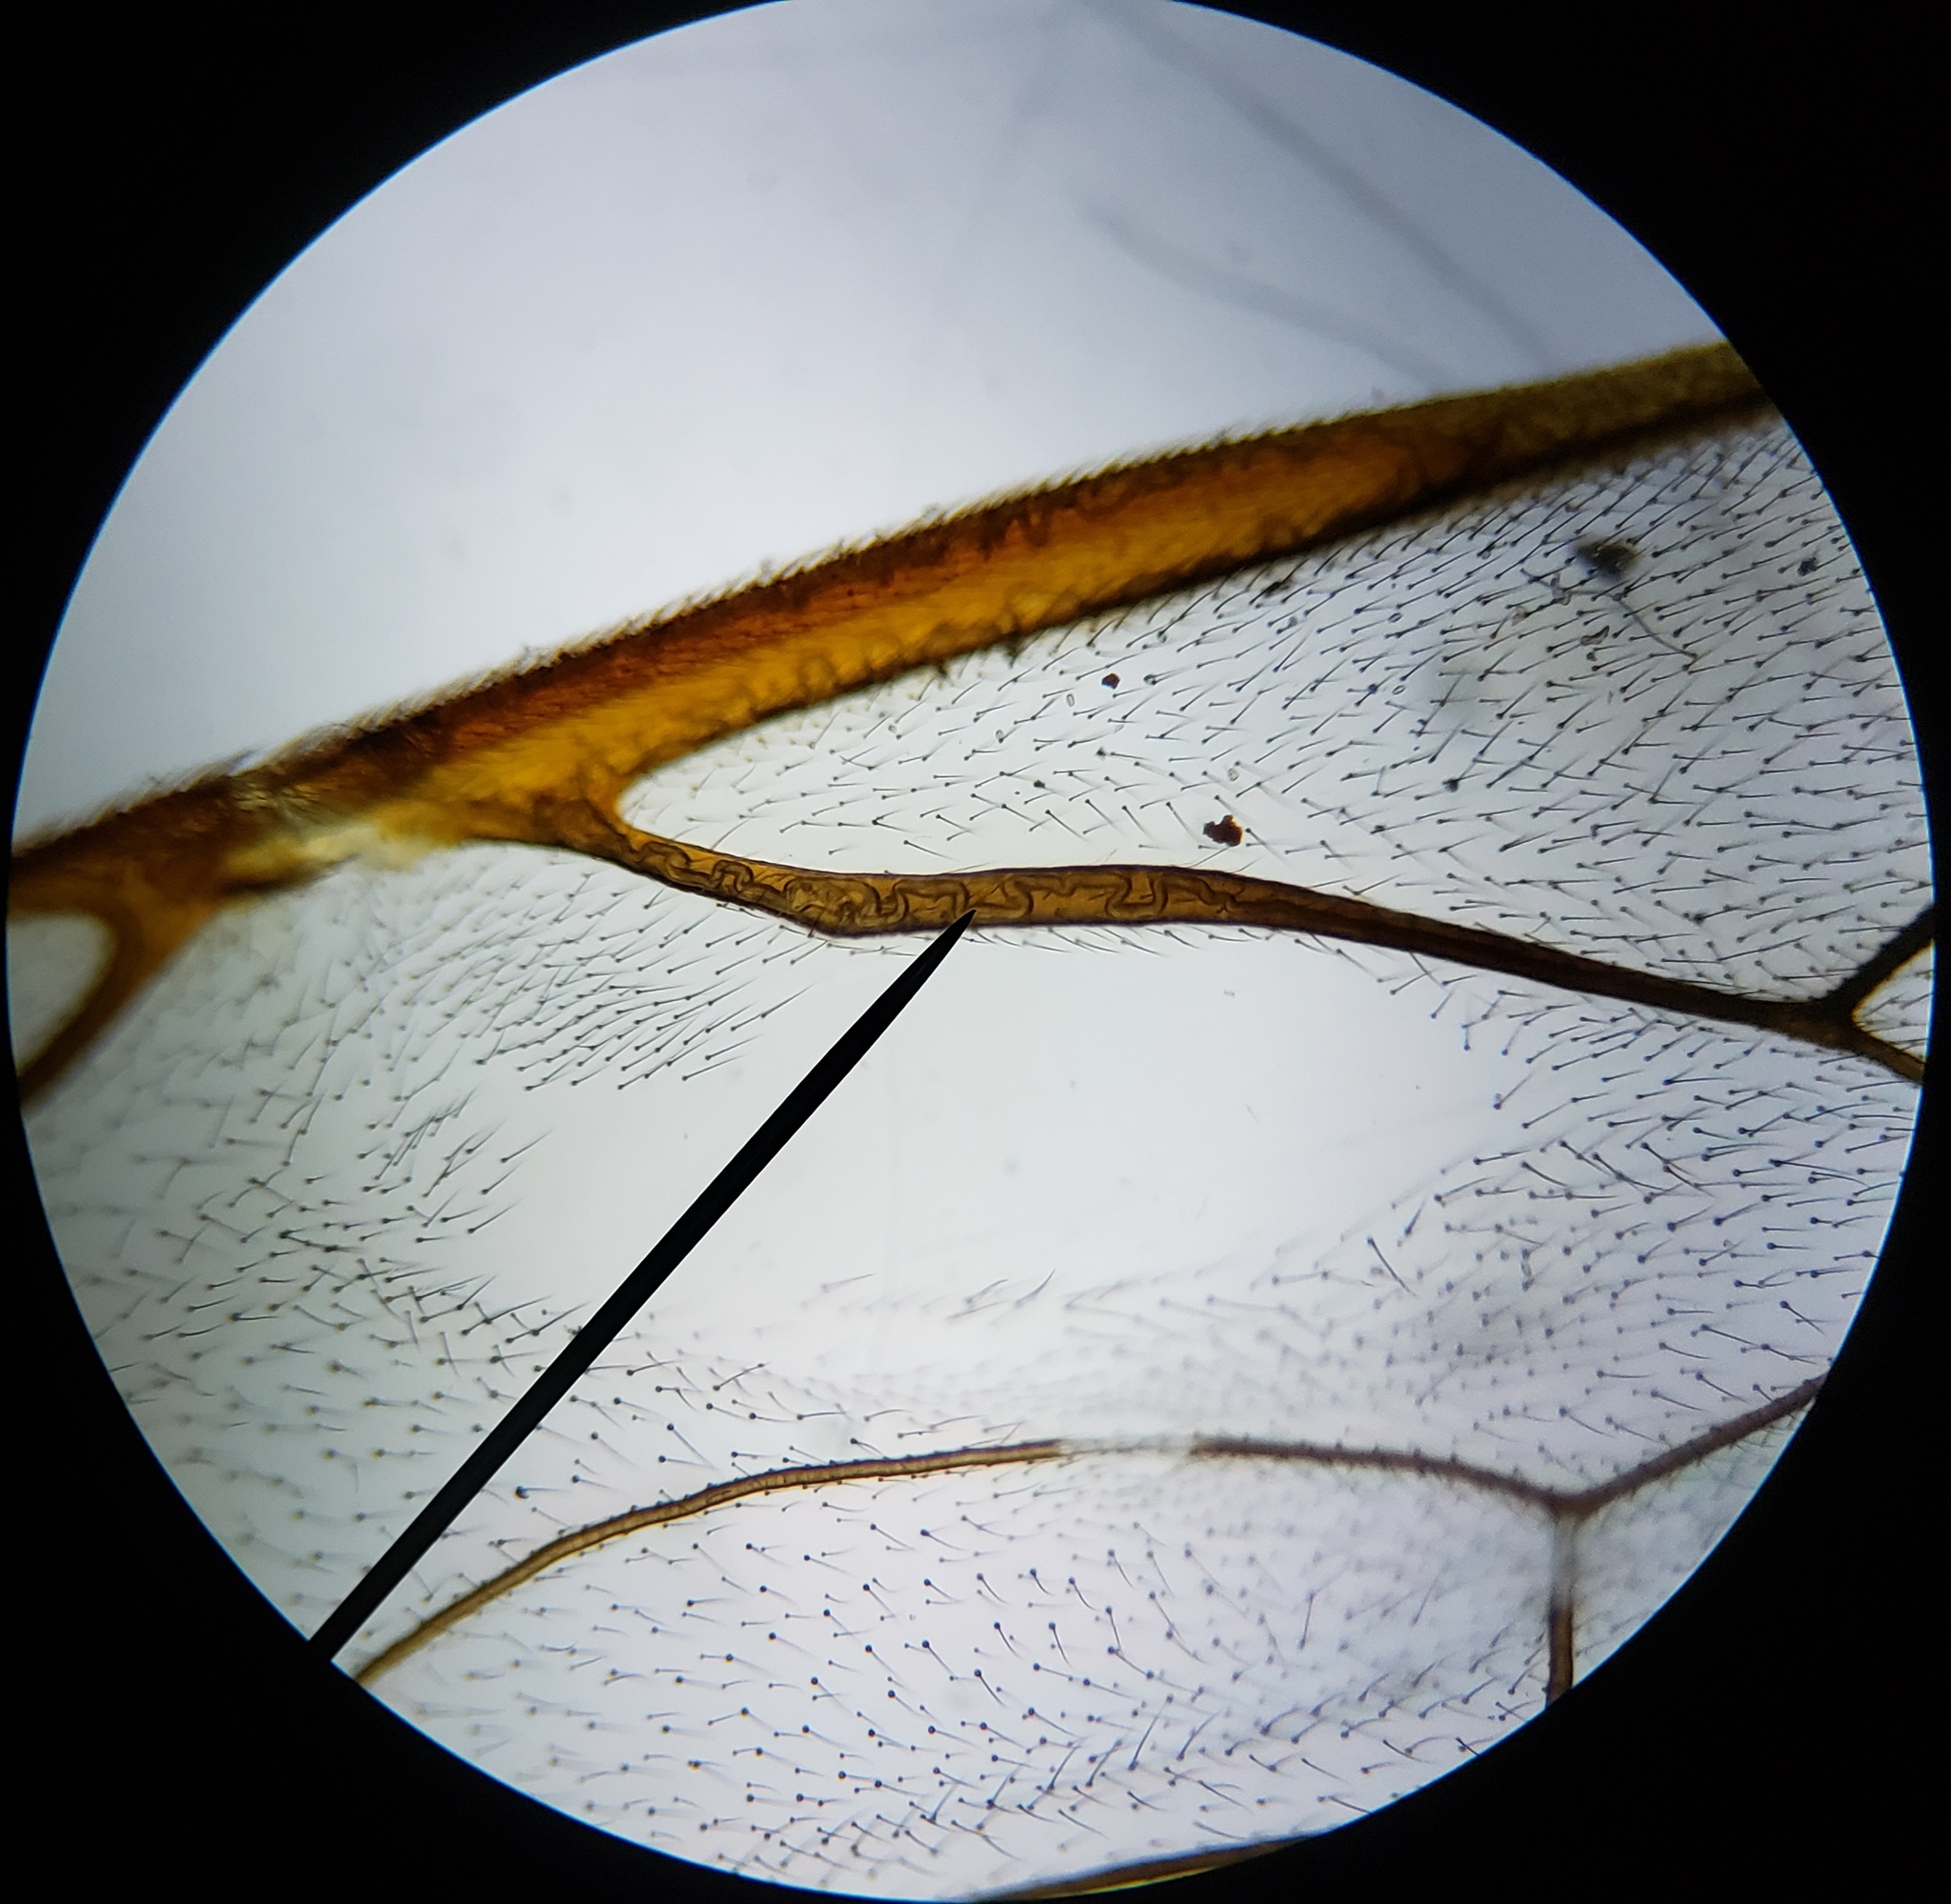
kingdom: Animalia
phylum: Arthropoda
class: Insecta
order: Hymenoptera
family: Ichneumonidae
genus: Enicospilus
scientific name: Enicospilus glabratus
